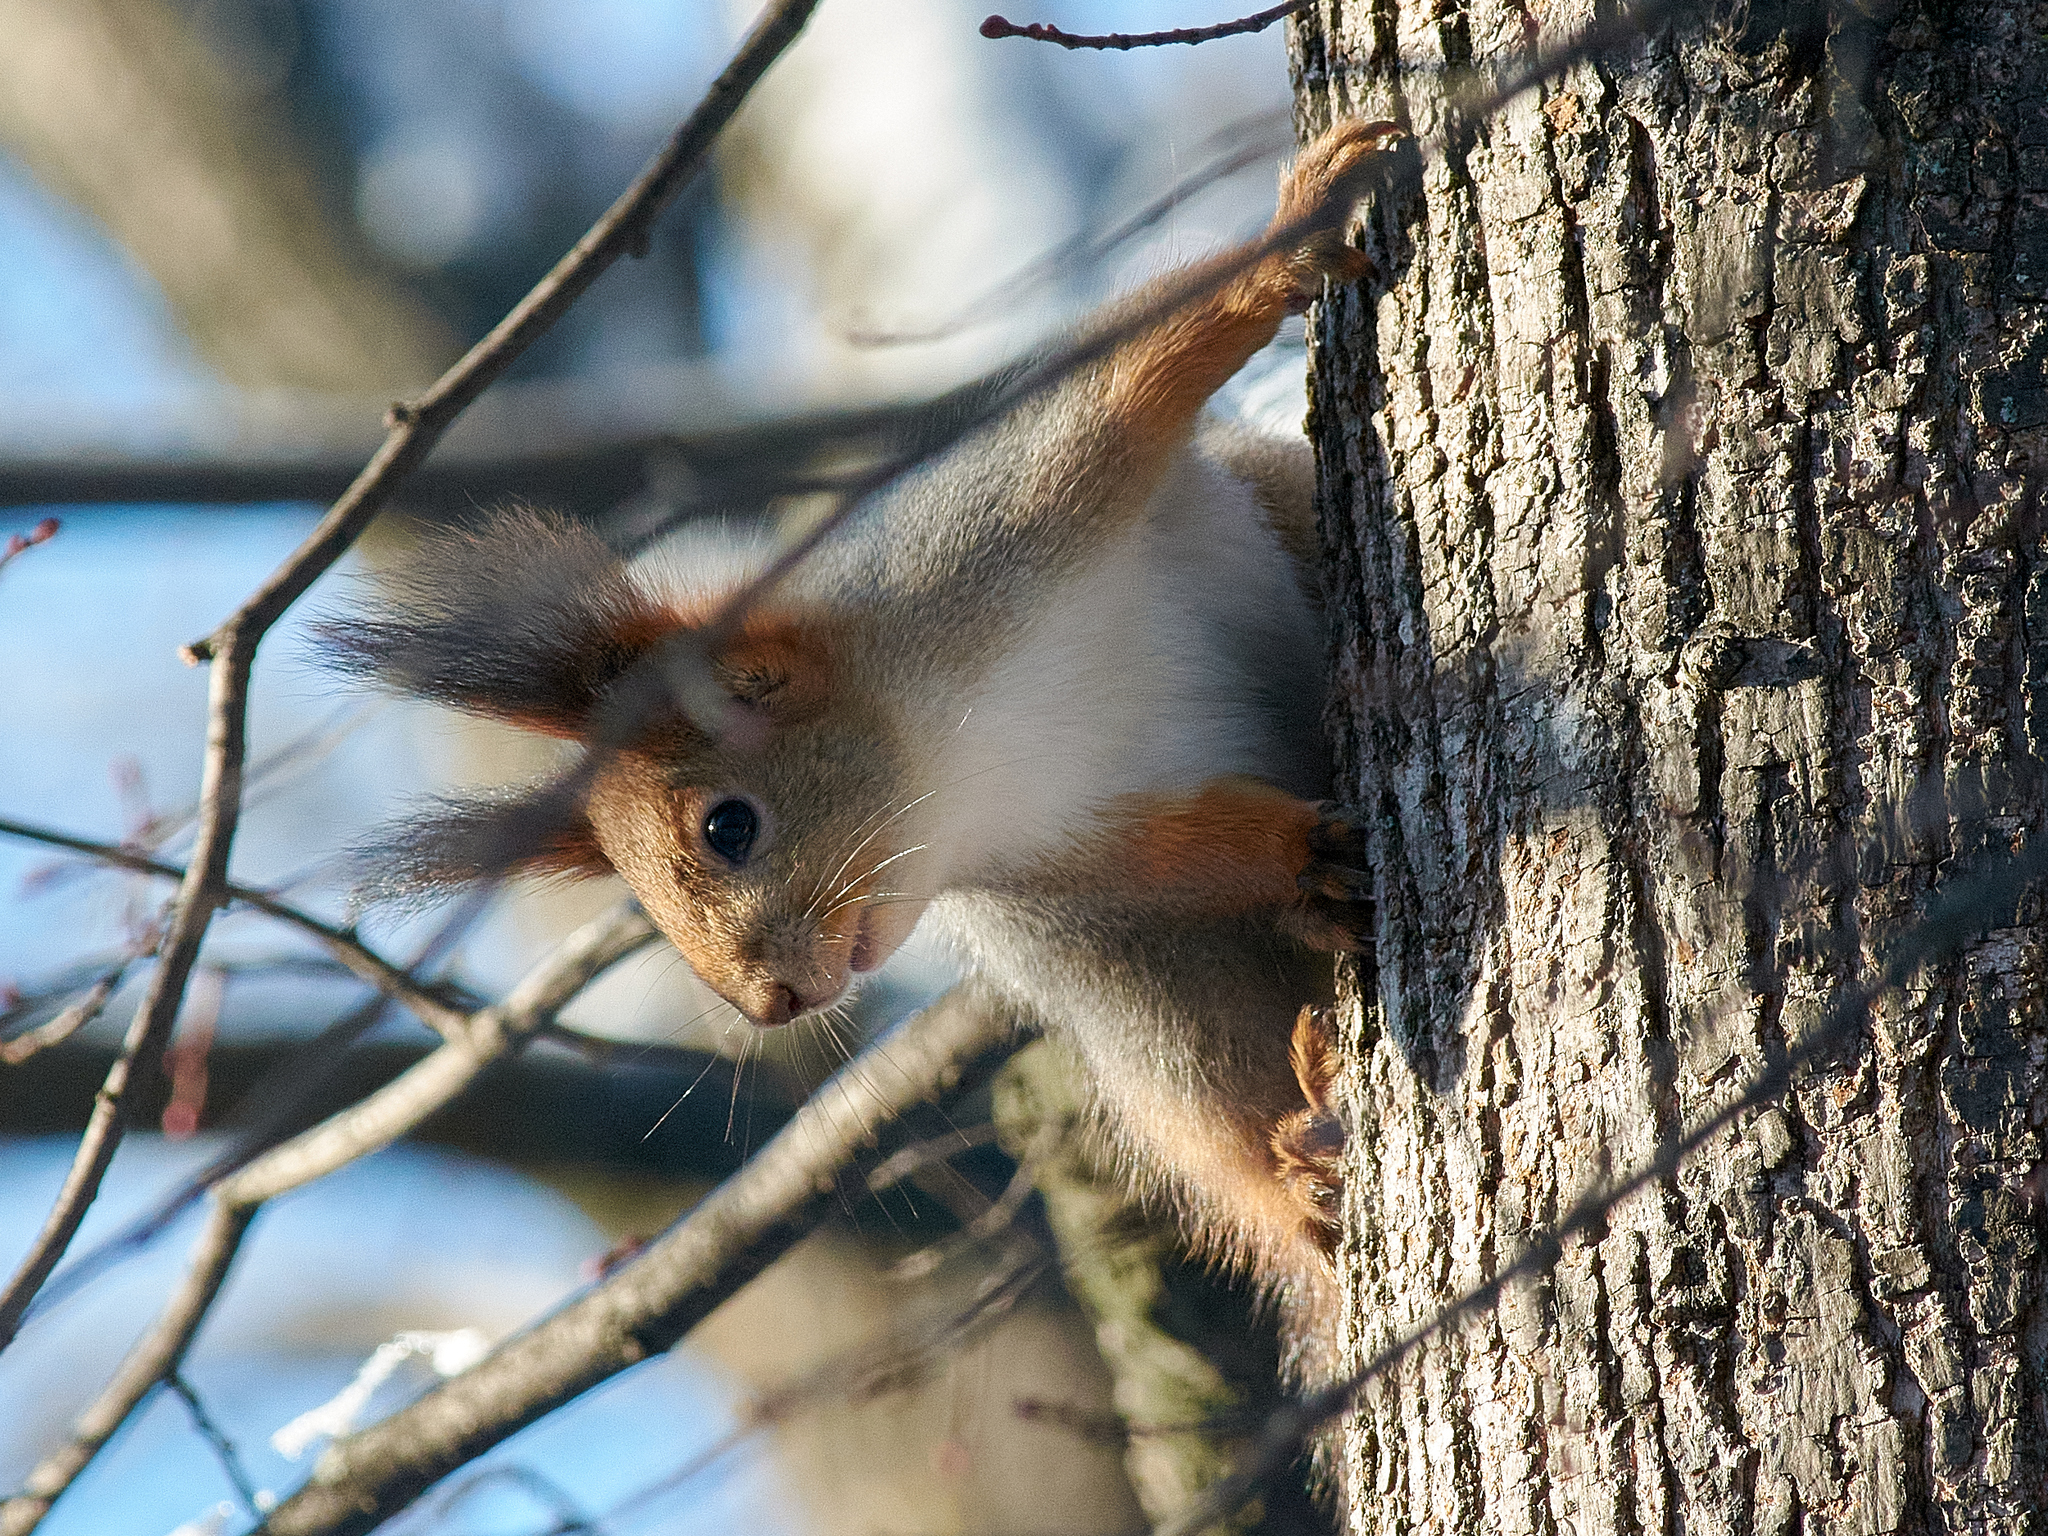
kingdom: Animalia
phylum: Chordata
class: Mammalia
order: Rodentia
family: Sciuridae
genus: Sciurus
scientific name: Sciurus vulgaris
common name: Eurasian red squirrel
